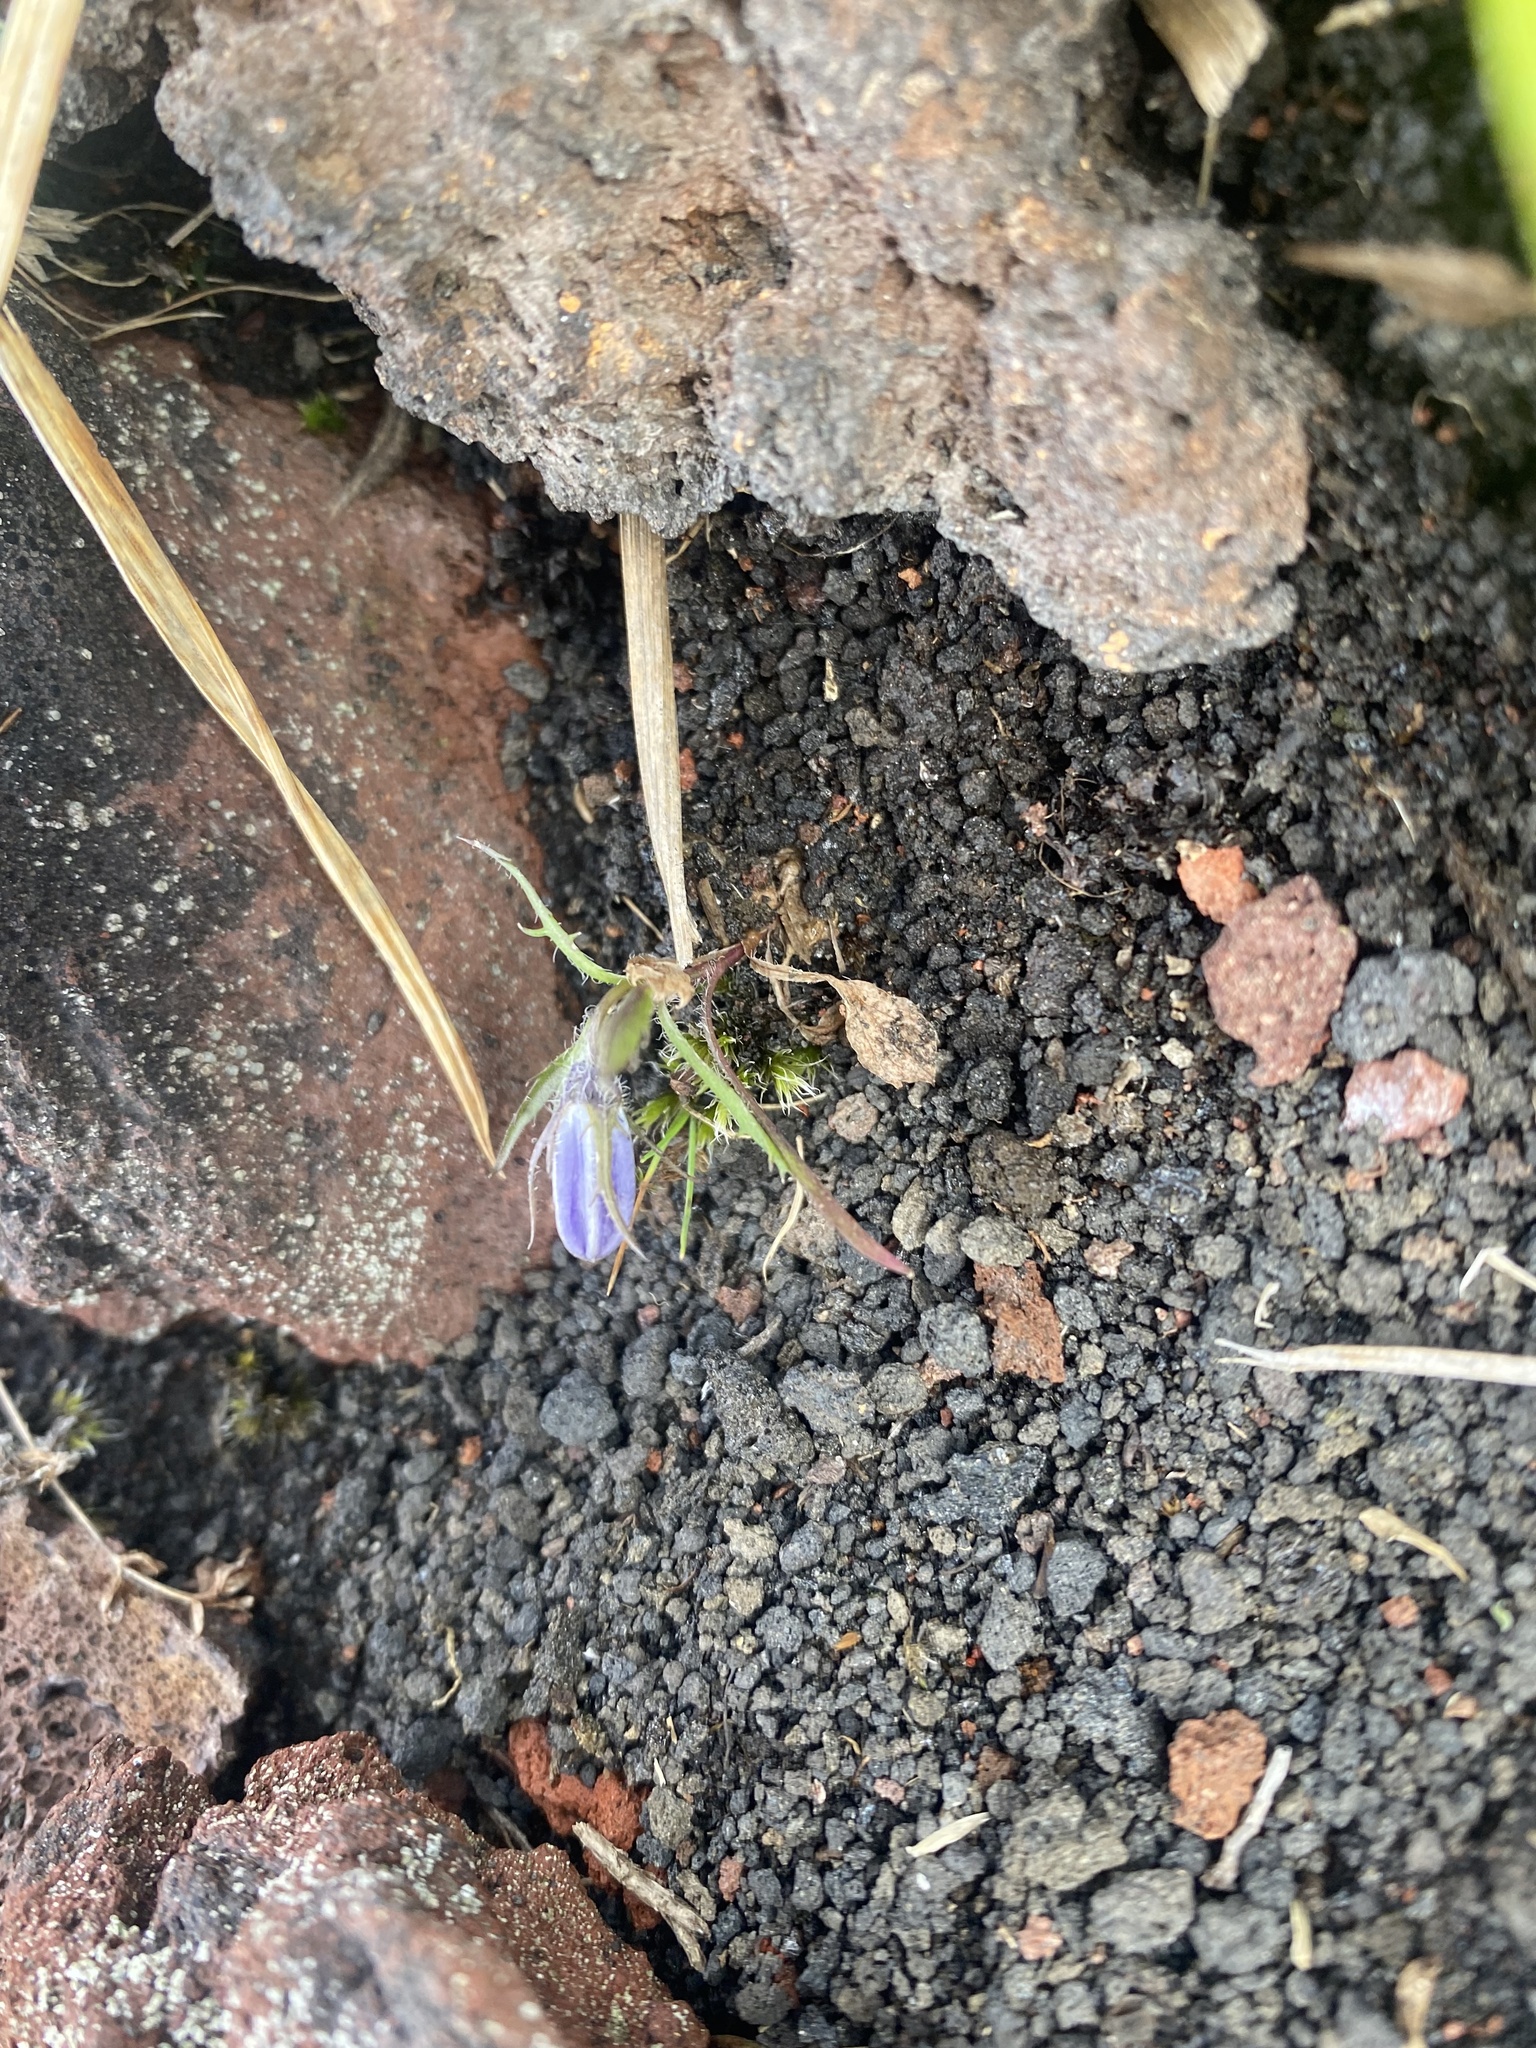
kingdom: Plantae
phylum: Tracheophyta
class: Magnoliopsida
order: Asterales
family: Campanulaceae
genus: Campanula
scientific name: Campanula lasiocarpa
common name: Mountain harebell
